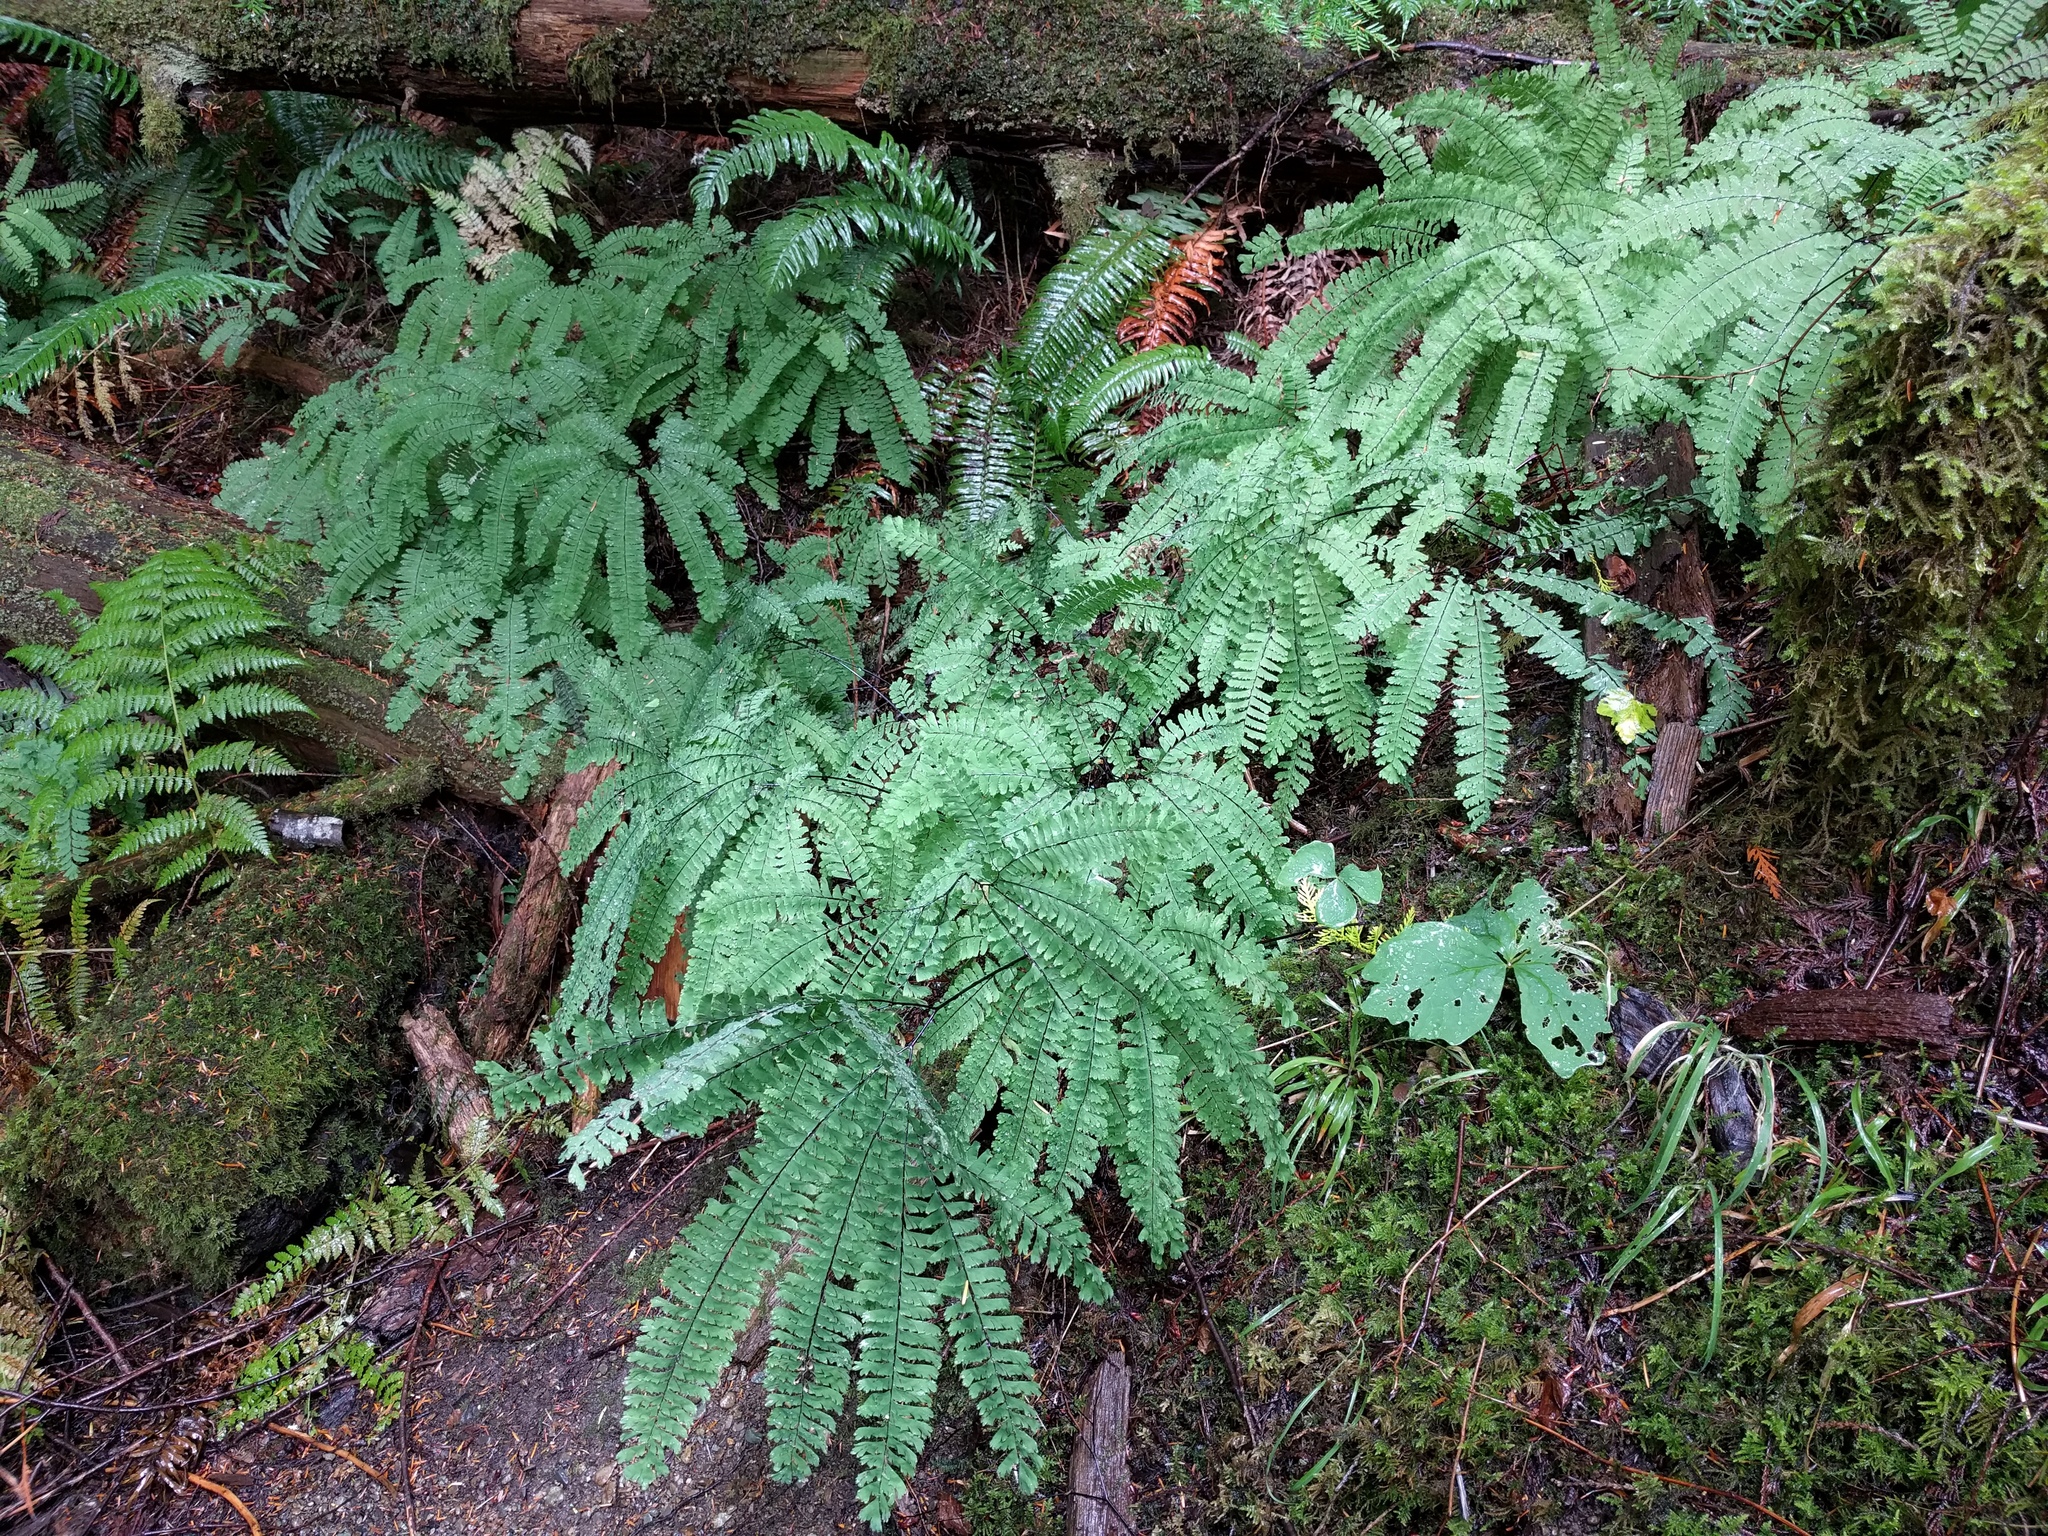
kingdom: Plantae
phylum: Tracheophyta
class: Polypodiopsida
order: Polypodiales
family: Pteridaceae
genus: Adiantum
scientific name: Adiantum aleuticum
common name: Aleutian maidenhair fern
